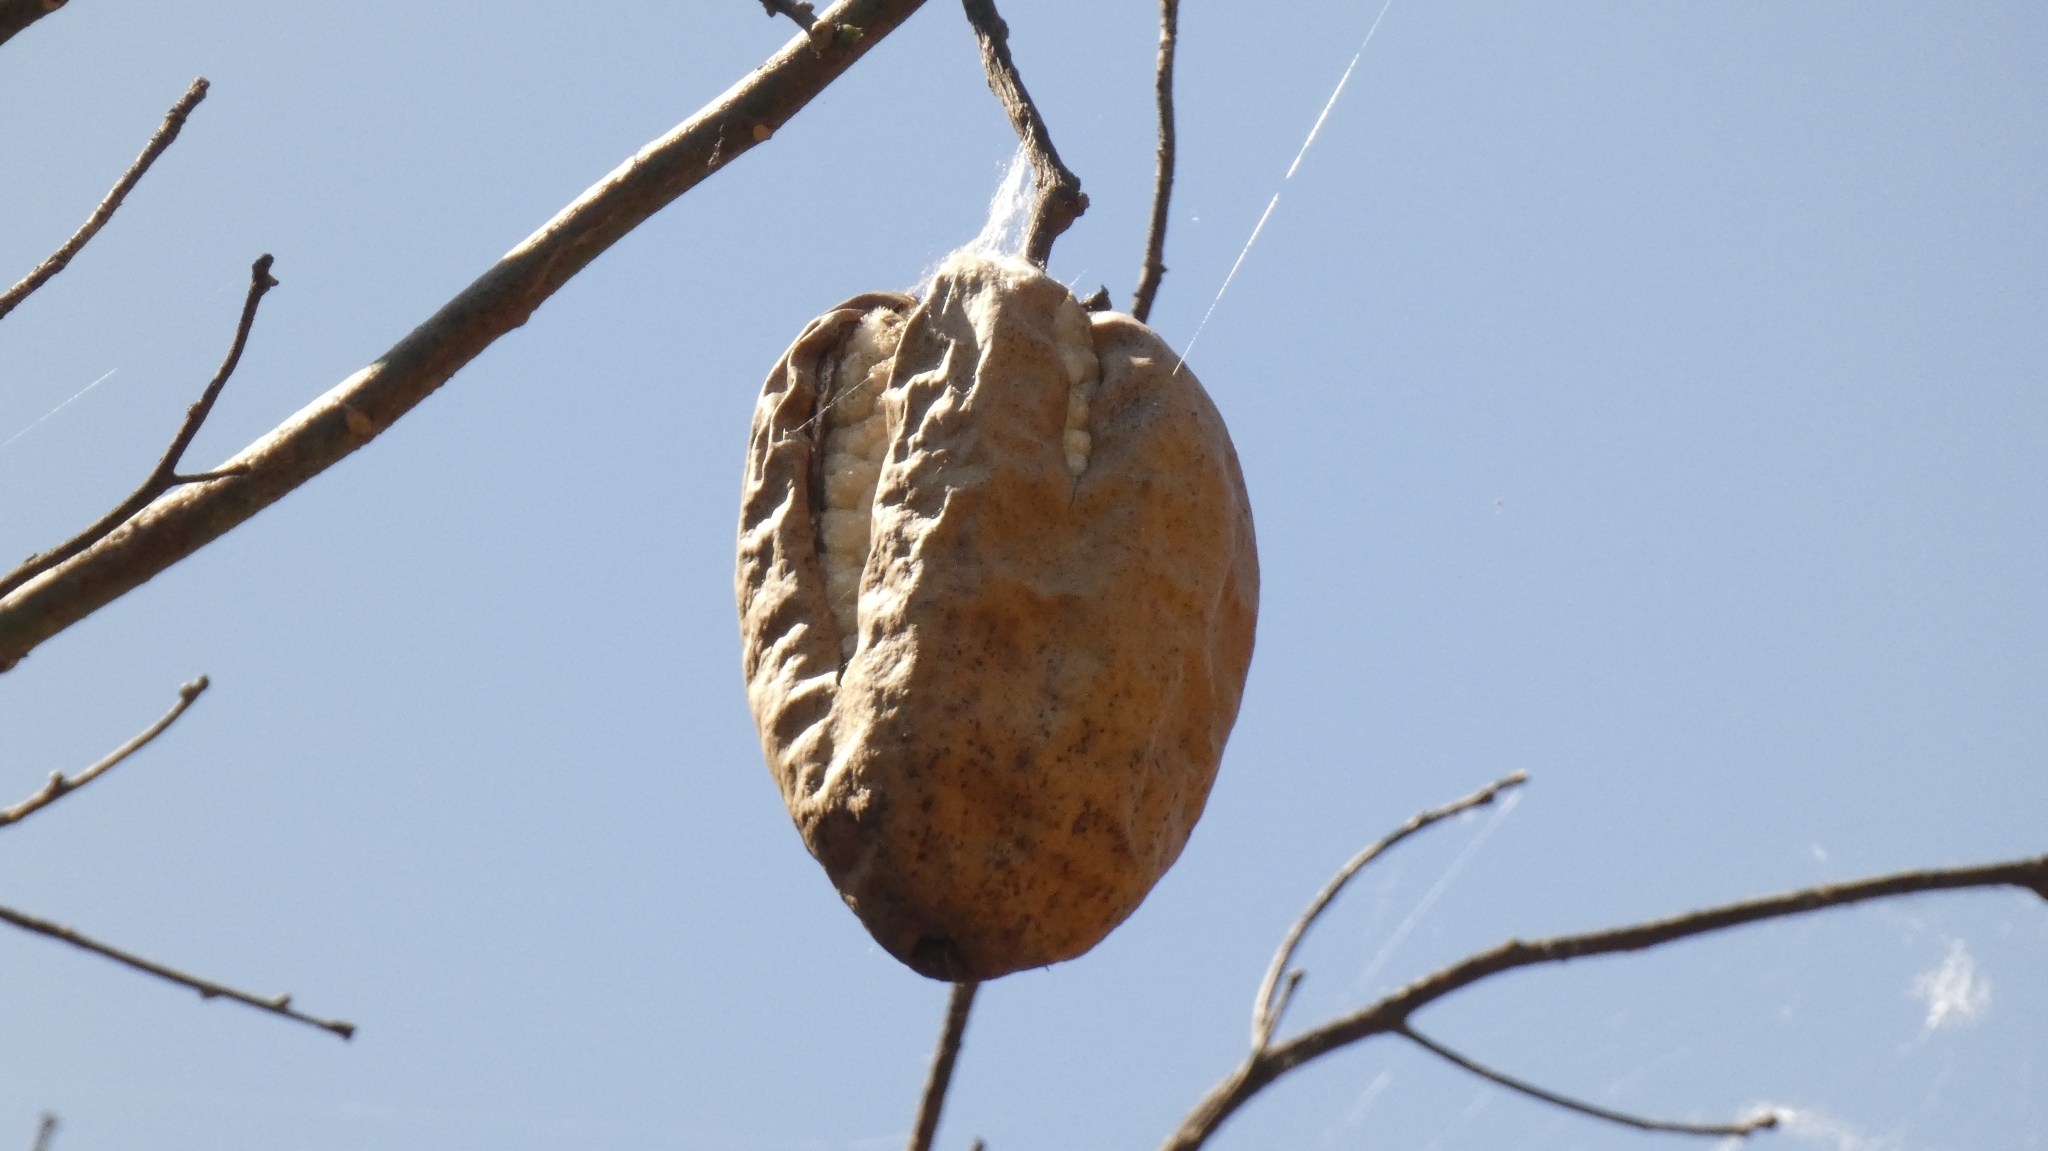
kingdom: Plantae
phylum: Tracheophyta
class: Magnoliopsida
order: Malvales
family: Malvaceae
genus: Ceiba
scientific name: Ceiba speciosa
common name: Silk-floss tree
